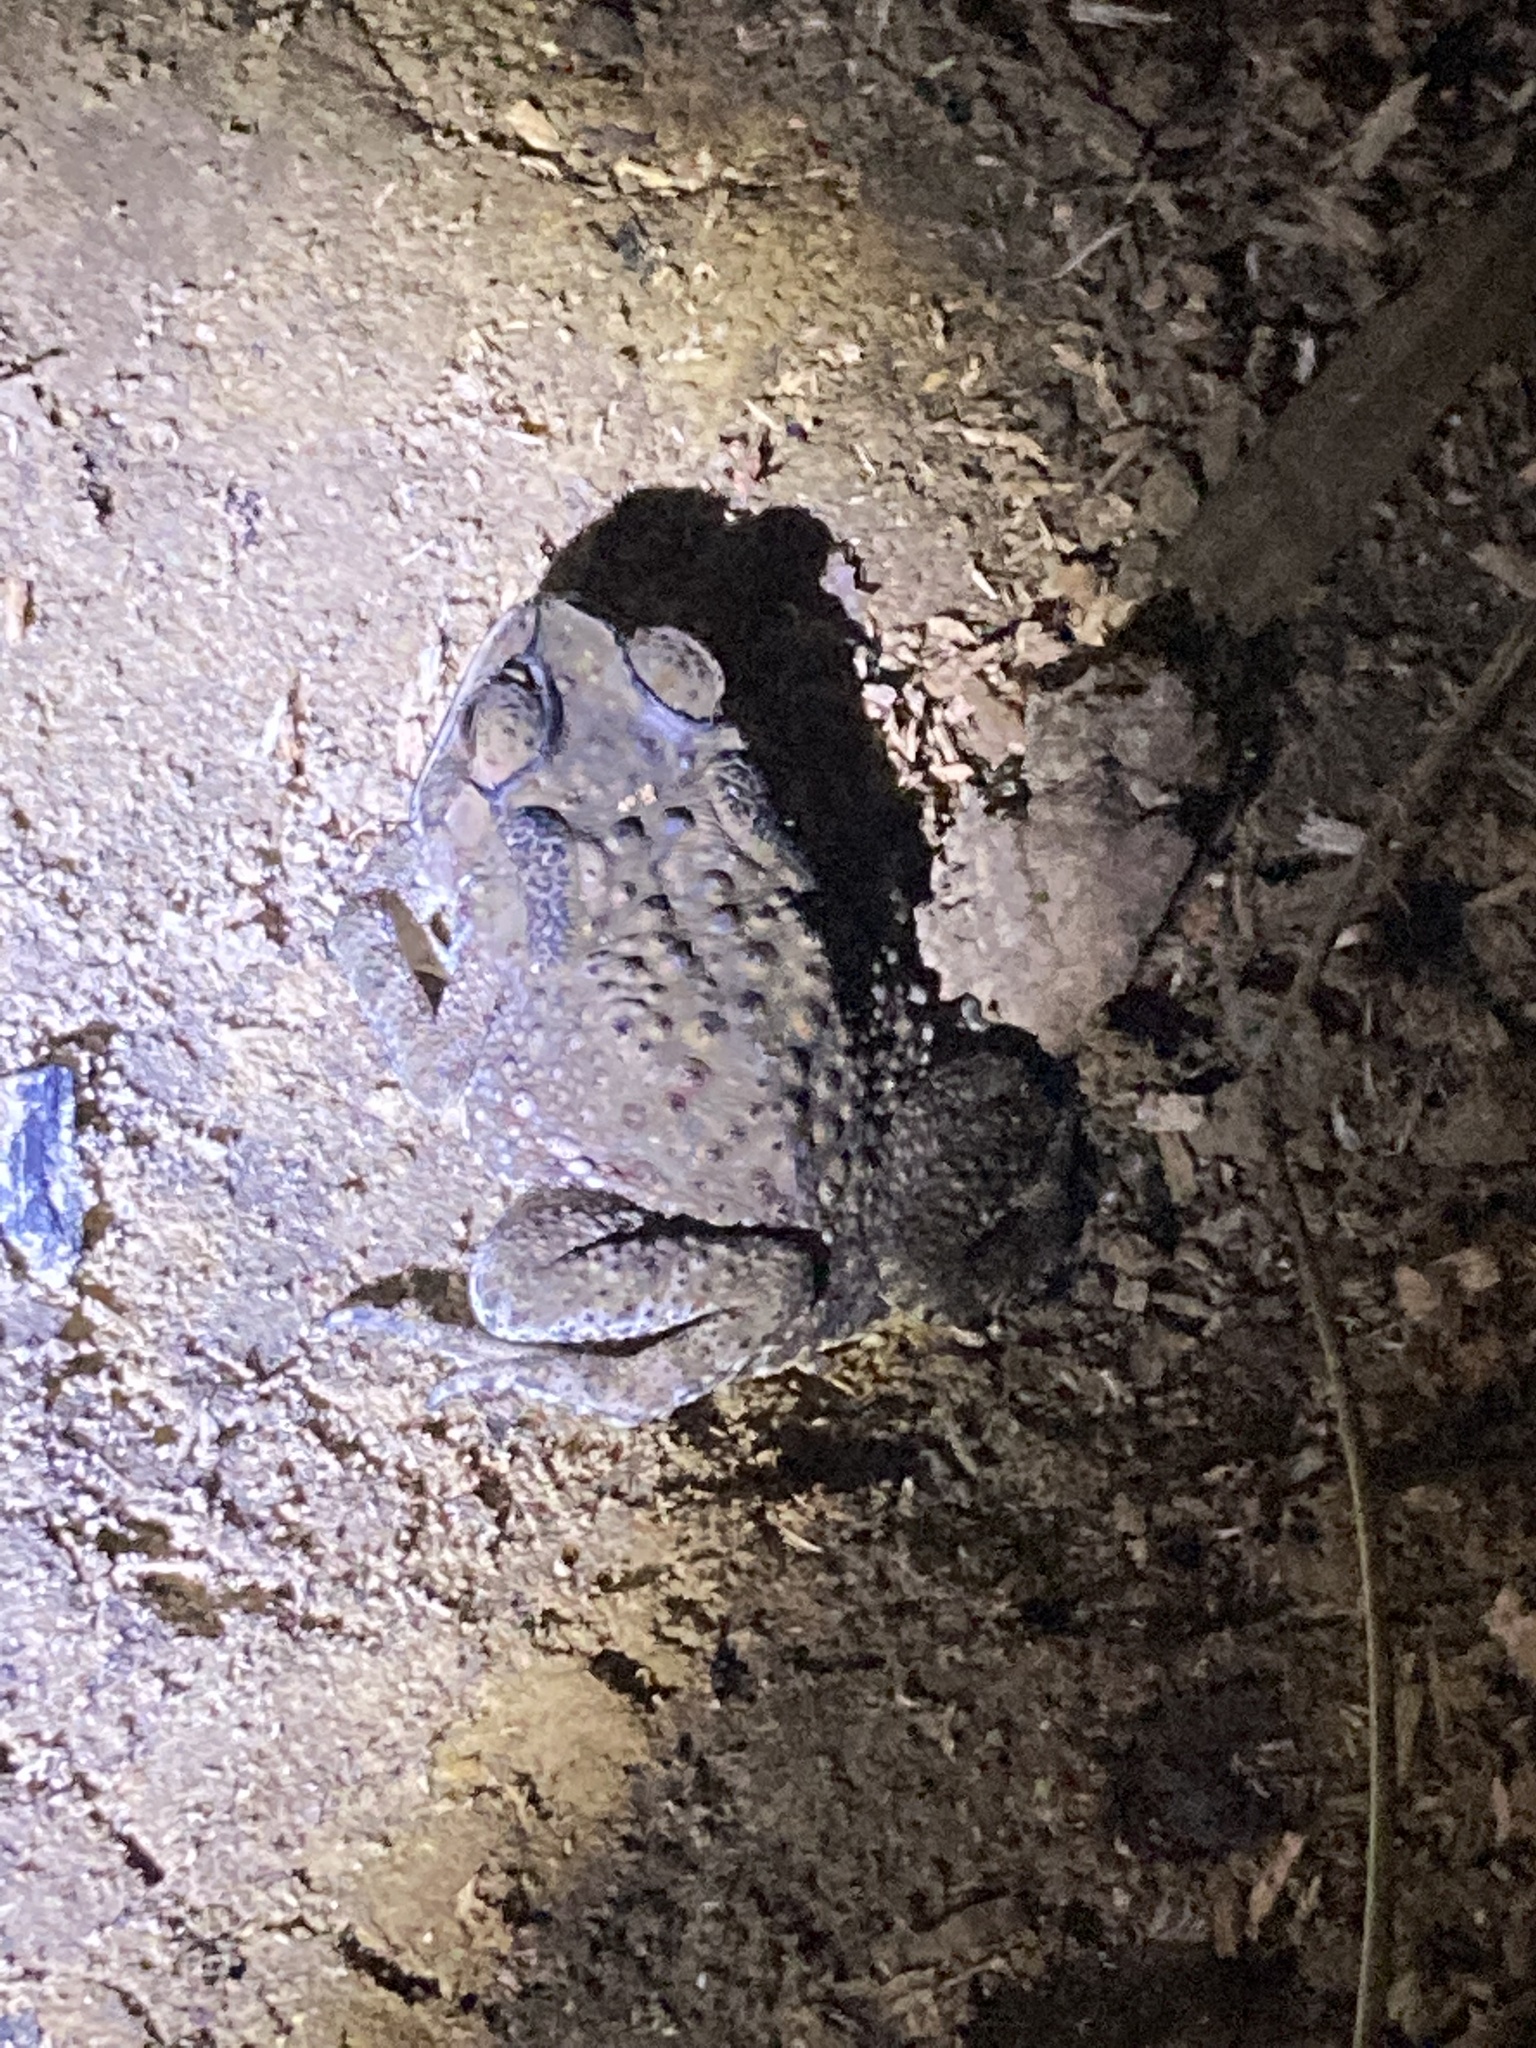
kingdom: Animalia
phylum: Chordata
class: Amphibia
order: Anura
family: Bufonidae
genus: Duttaphrynus
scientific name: Duttaphrynus melanostictus
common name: Common sunda toad
